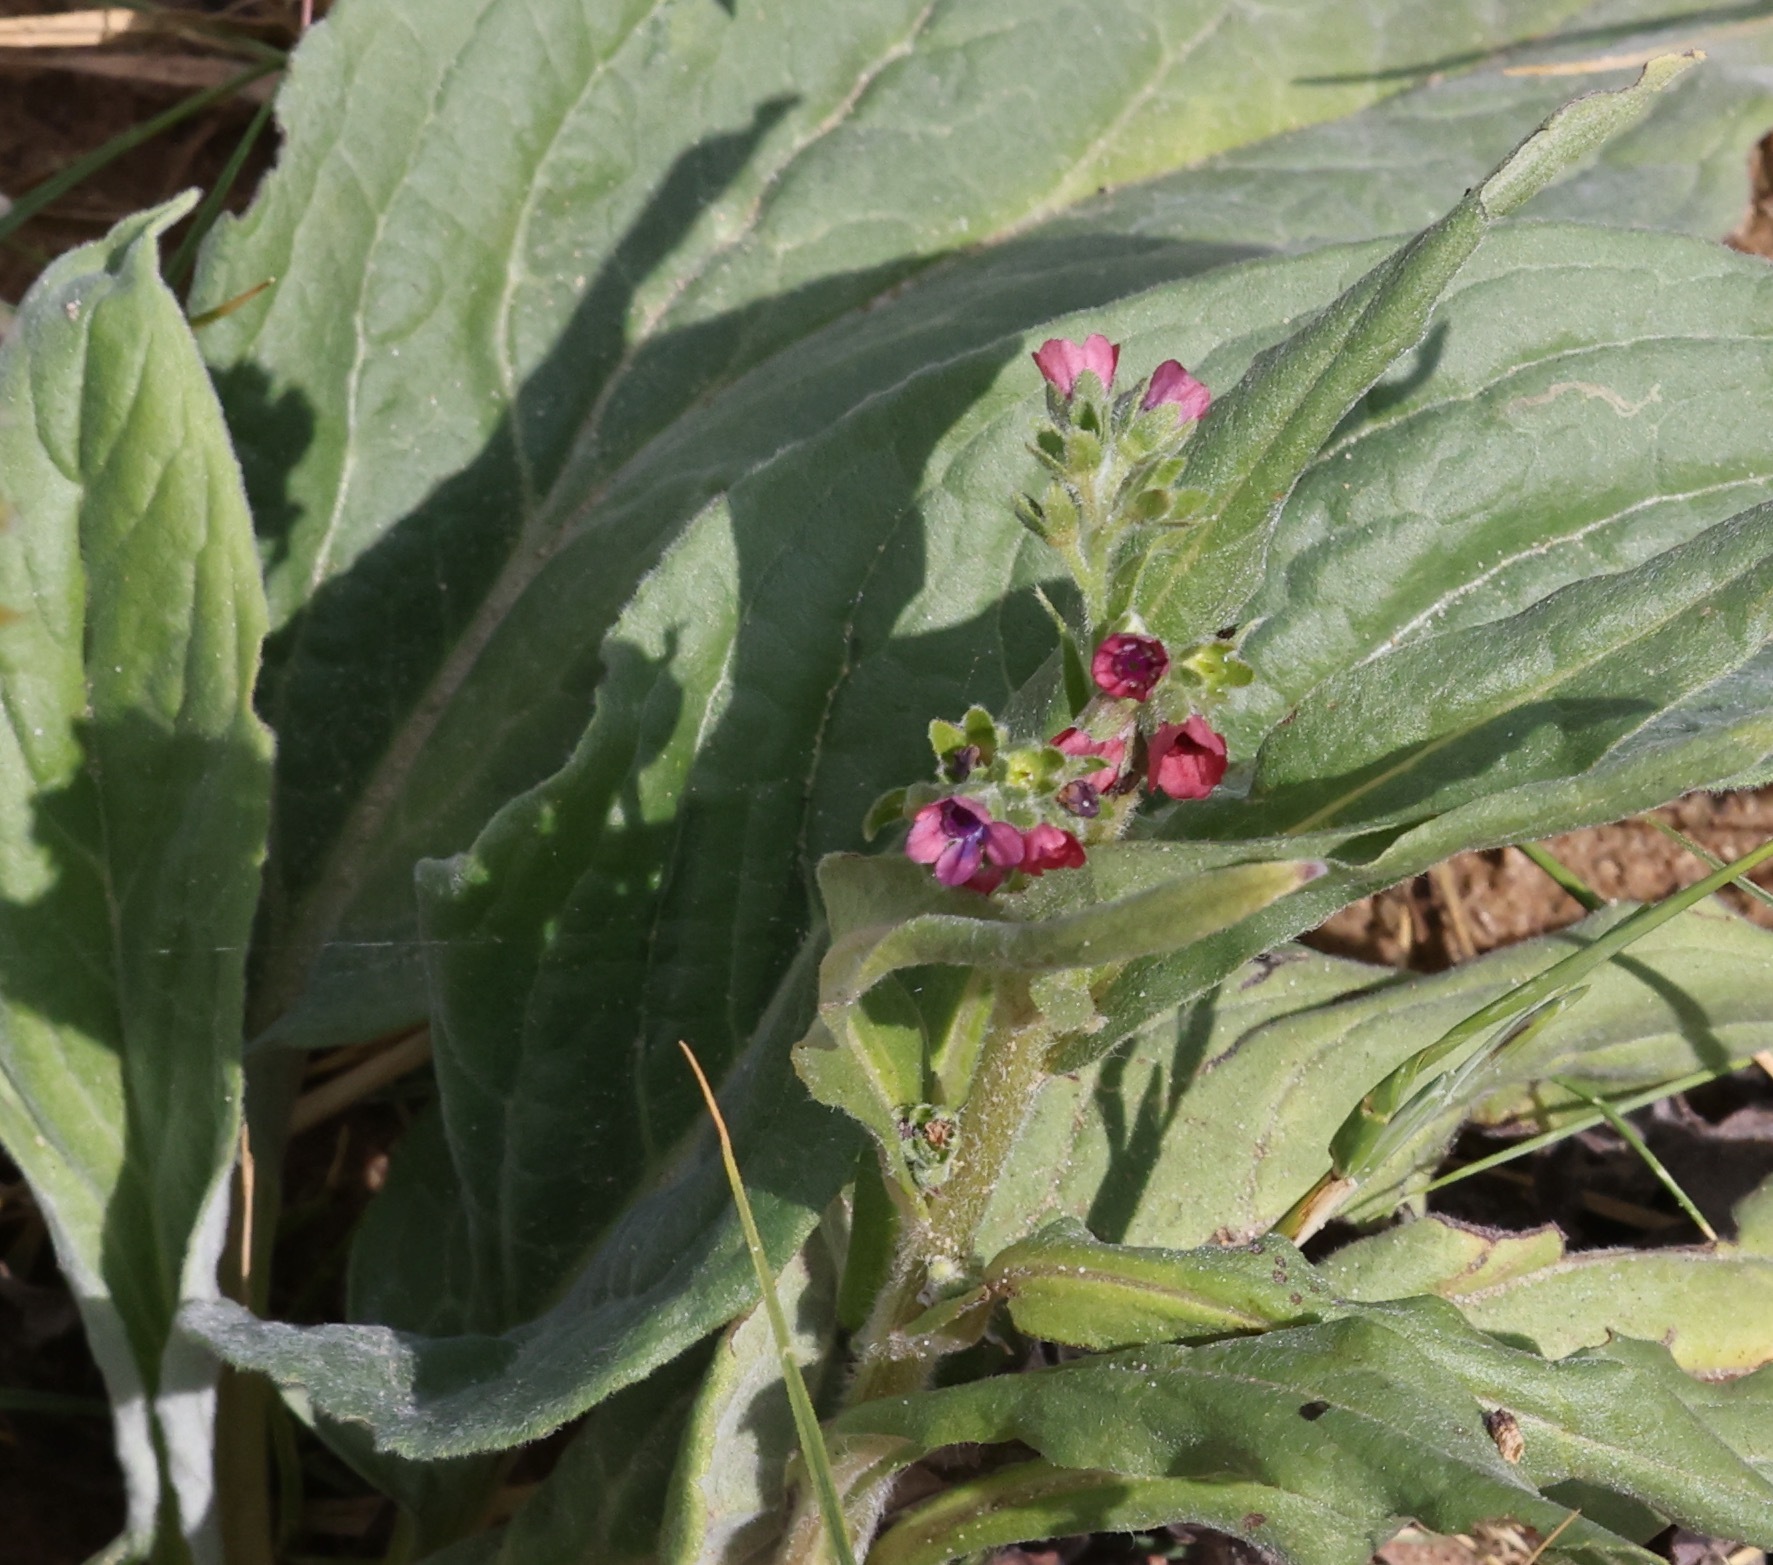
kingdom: Plantae
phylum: Tracheophyta
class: Magnoliopsida
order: Boraginales
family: Boraginaceae
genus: Cynoglossum
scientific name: Cynoglossum officinale
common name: Hound's-tongue
